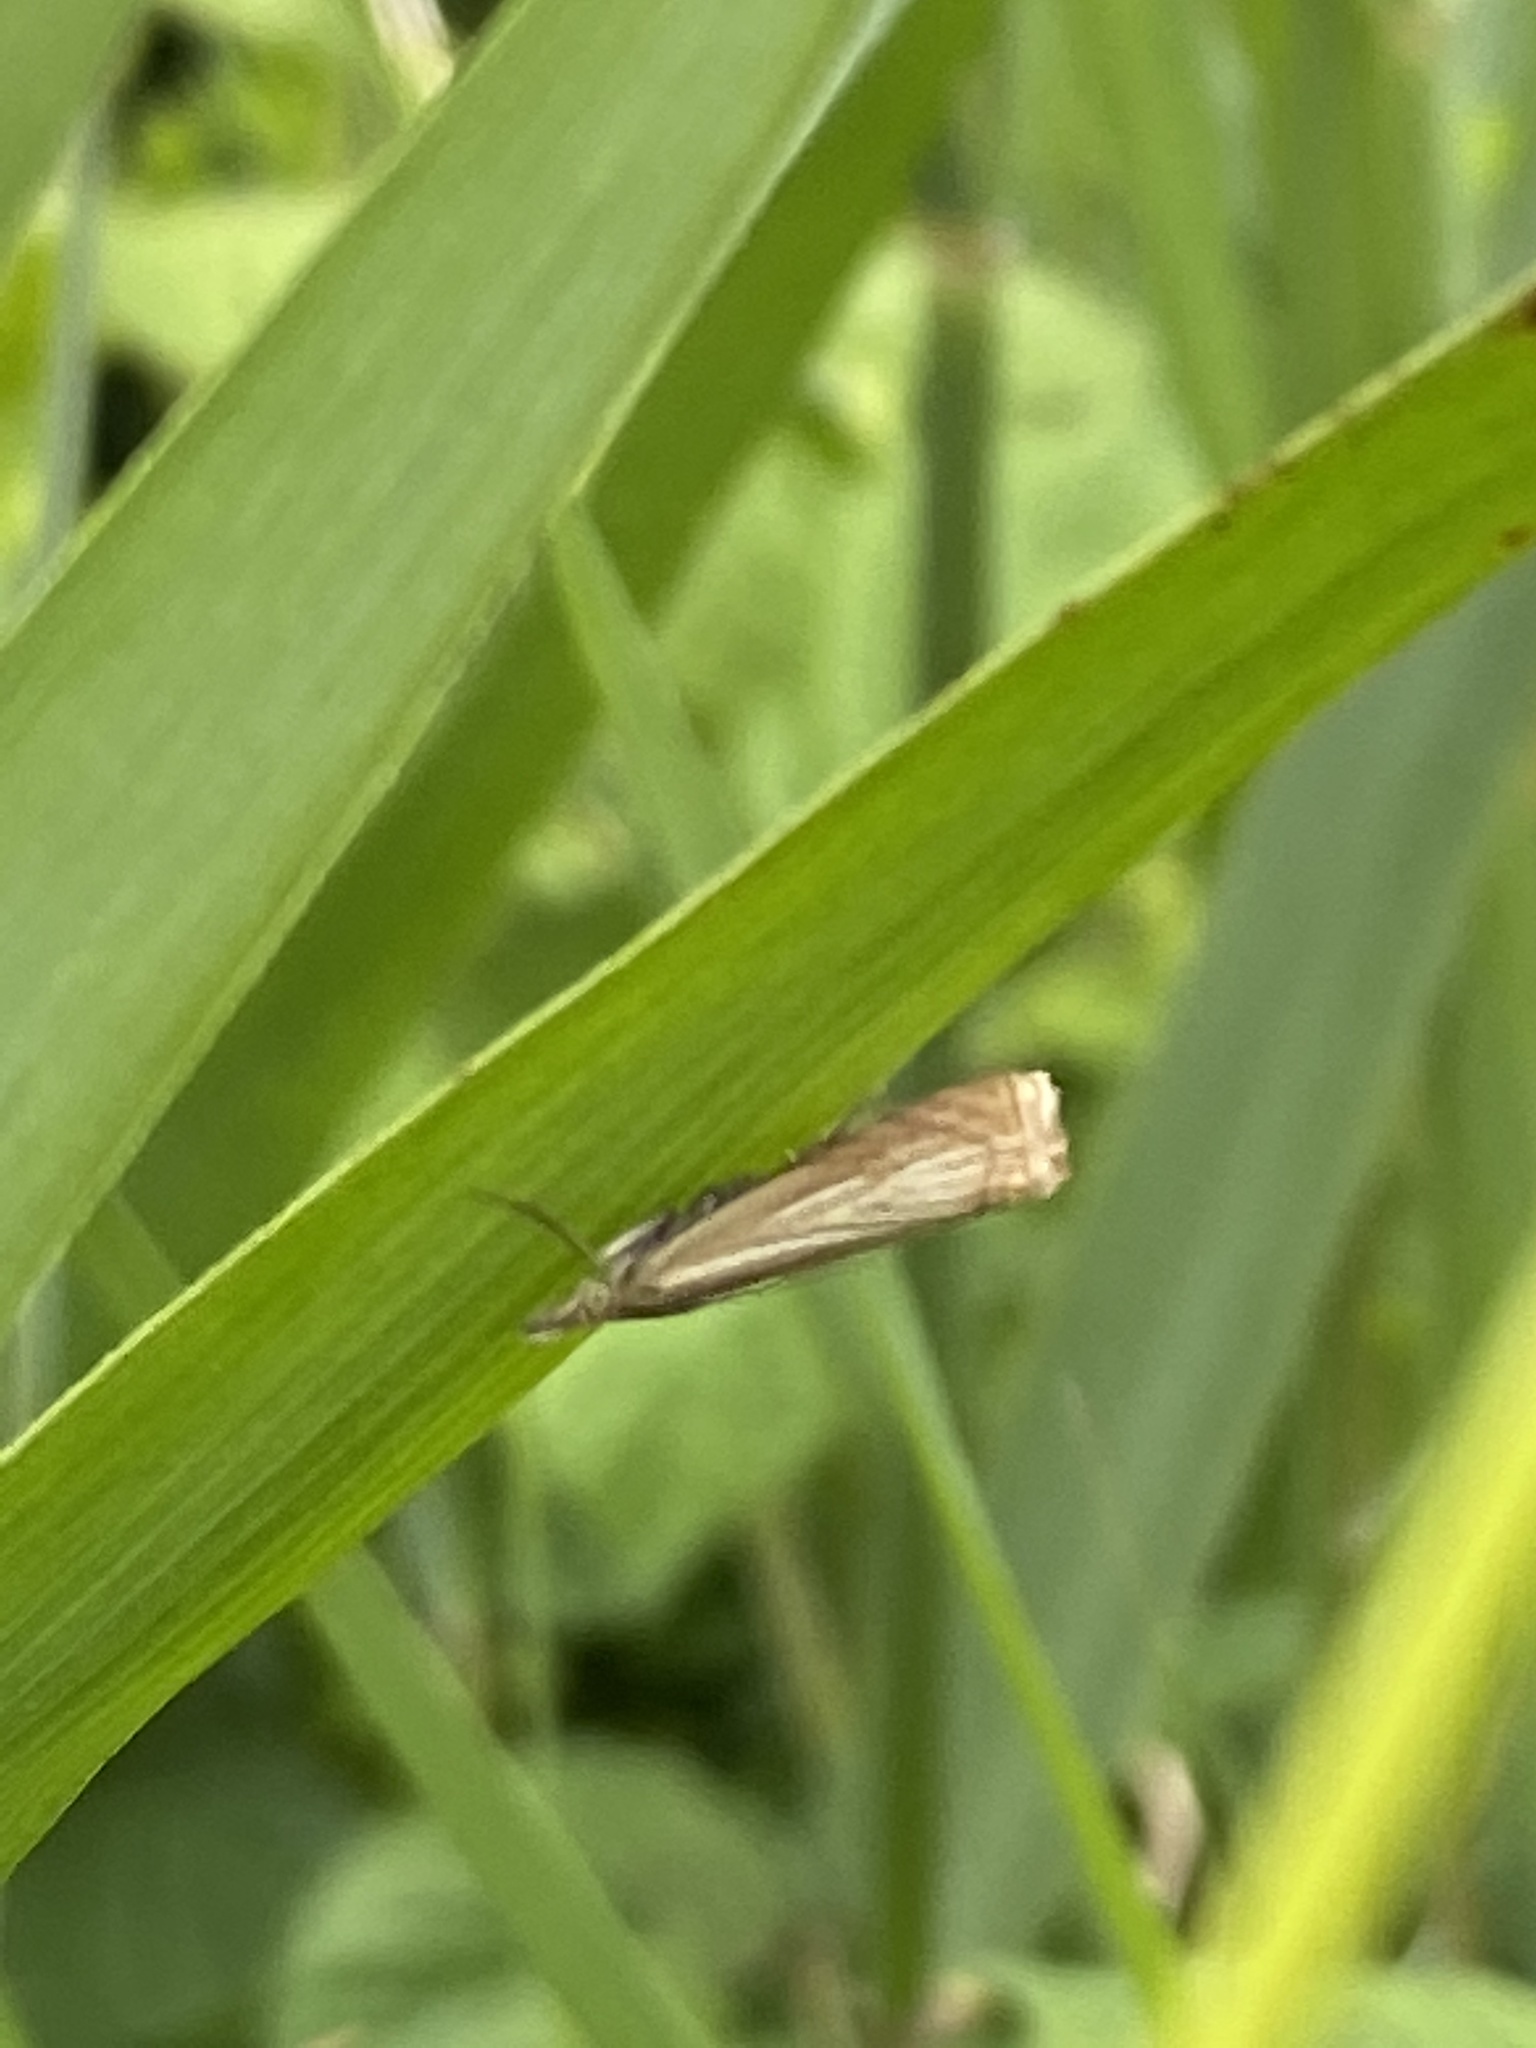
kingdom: Animalia
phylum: Arthropoda
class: Insecta
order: Lepidoptera
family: Crambidae
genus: Chrysoteuchia
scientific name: Chrysoteuchia culmella
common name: Garden grass-veneer
